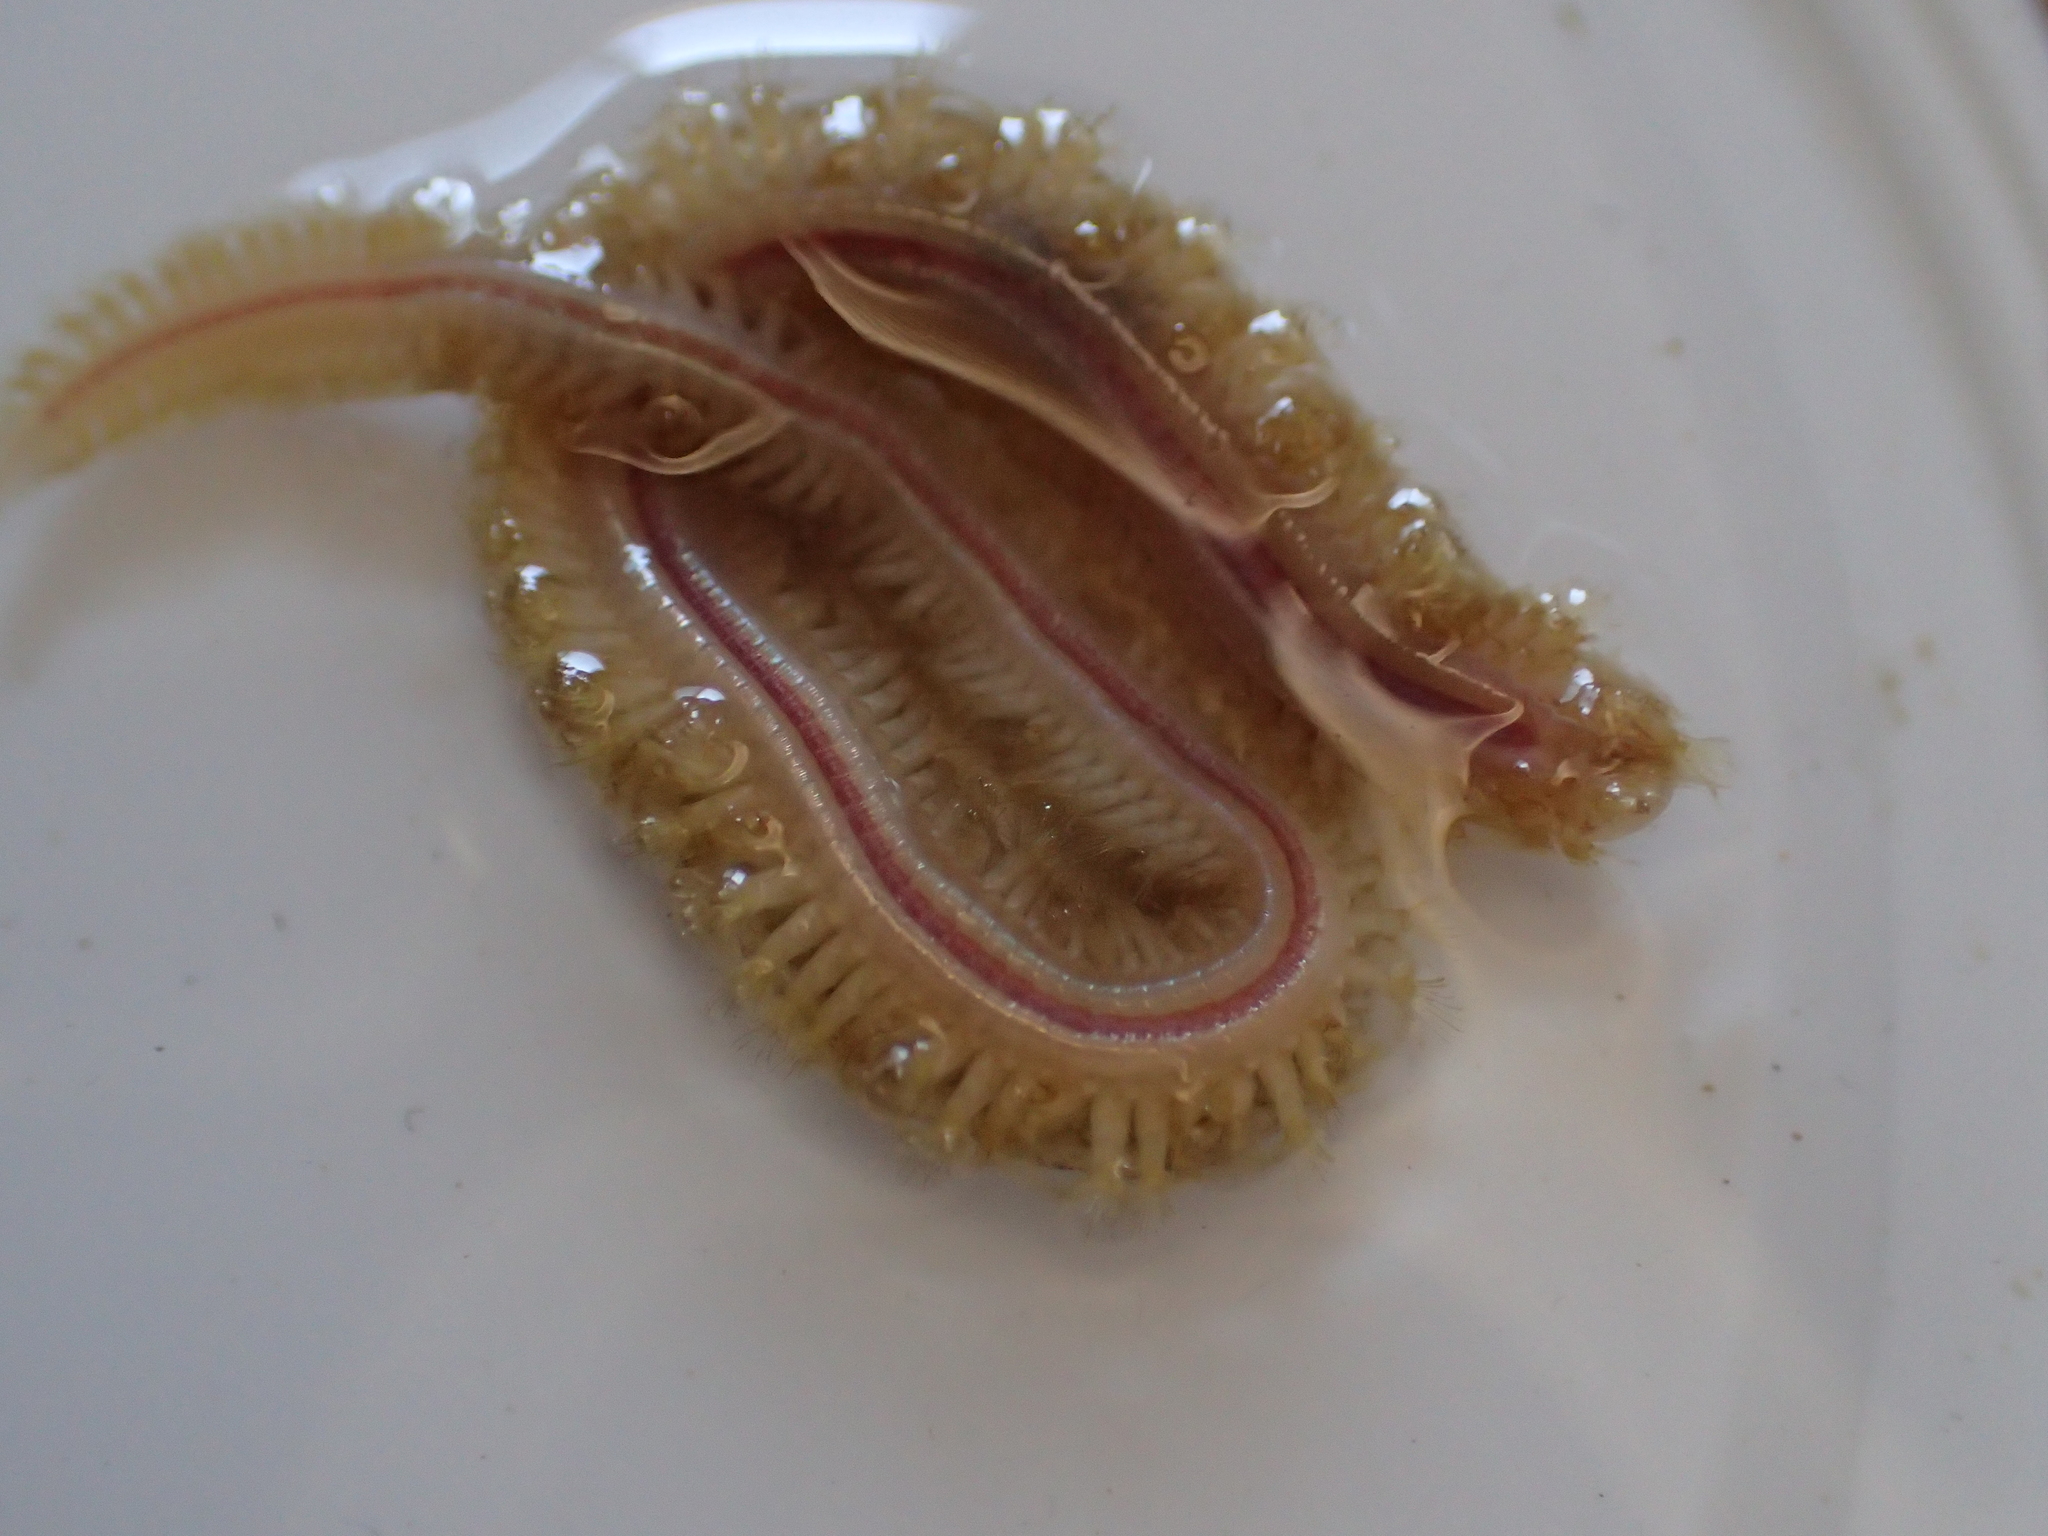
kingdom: Animalia
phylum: Annelida
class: Polychaeta
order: Phyllodocida
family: Sigalionidae
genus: Sthenelais
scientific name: Sthenelais boa
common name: Boa worm
